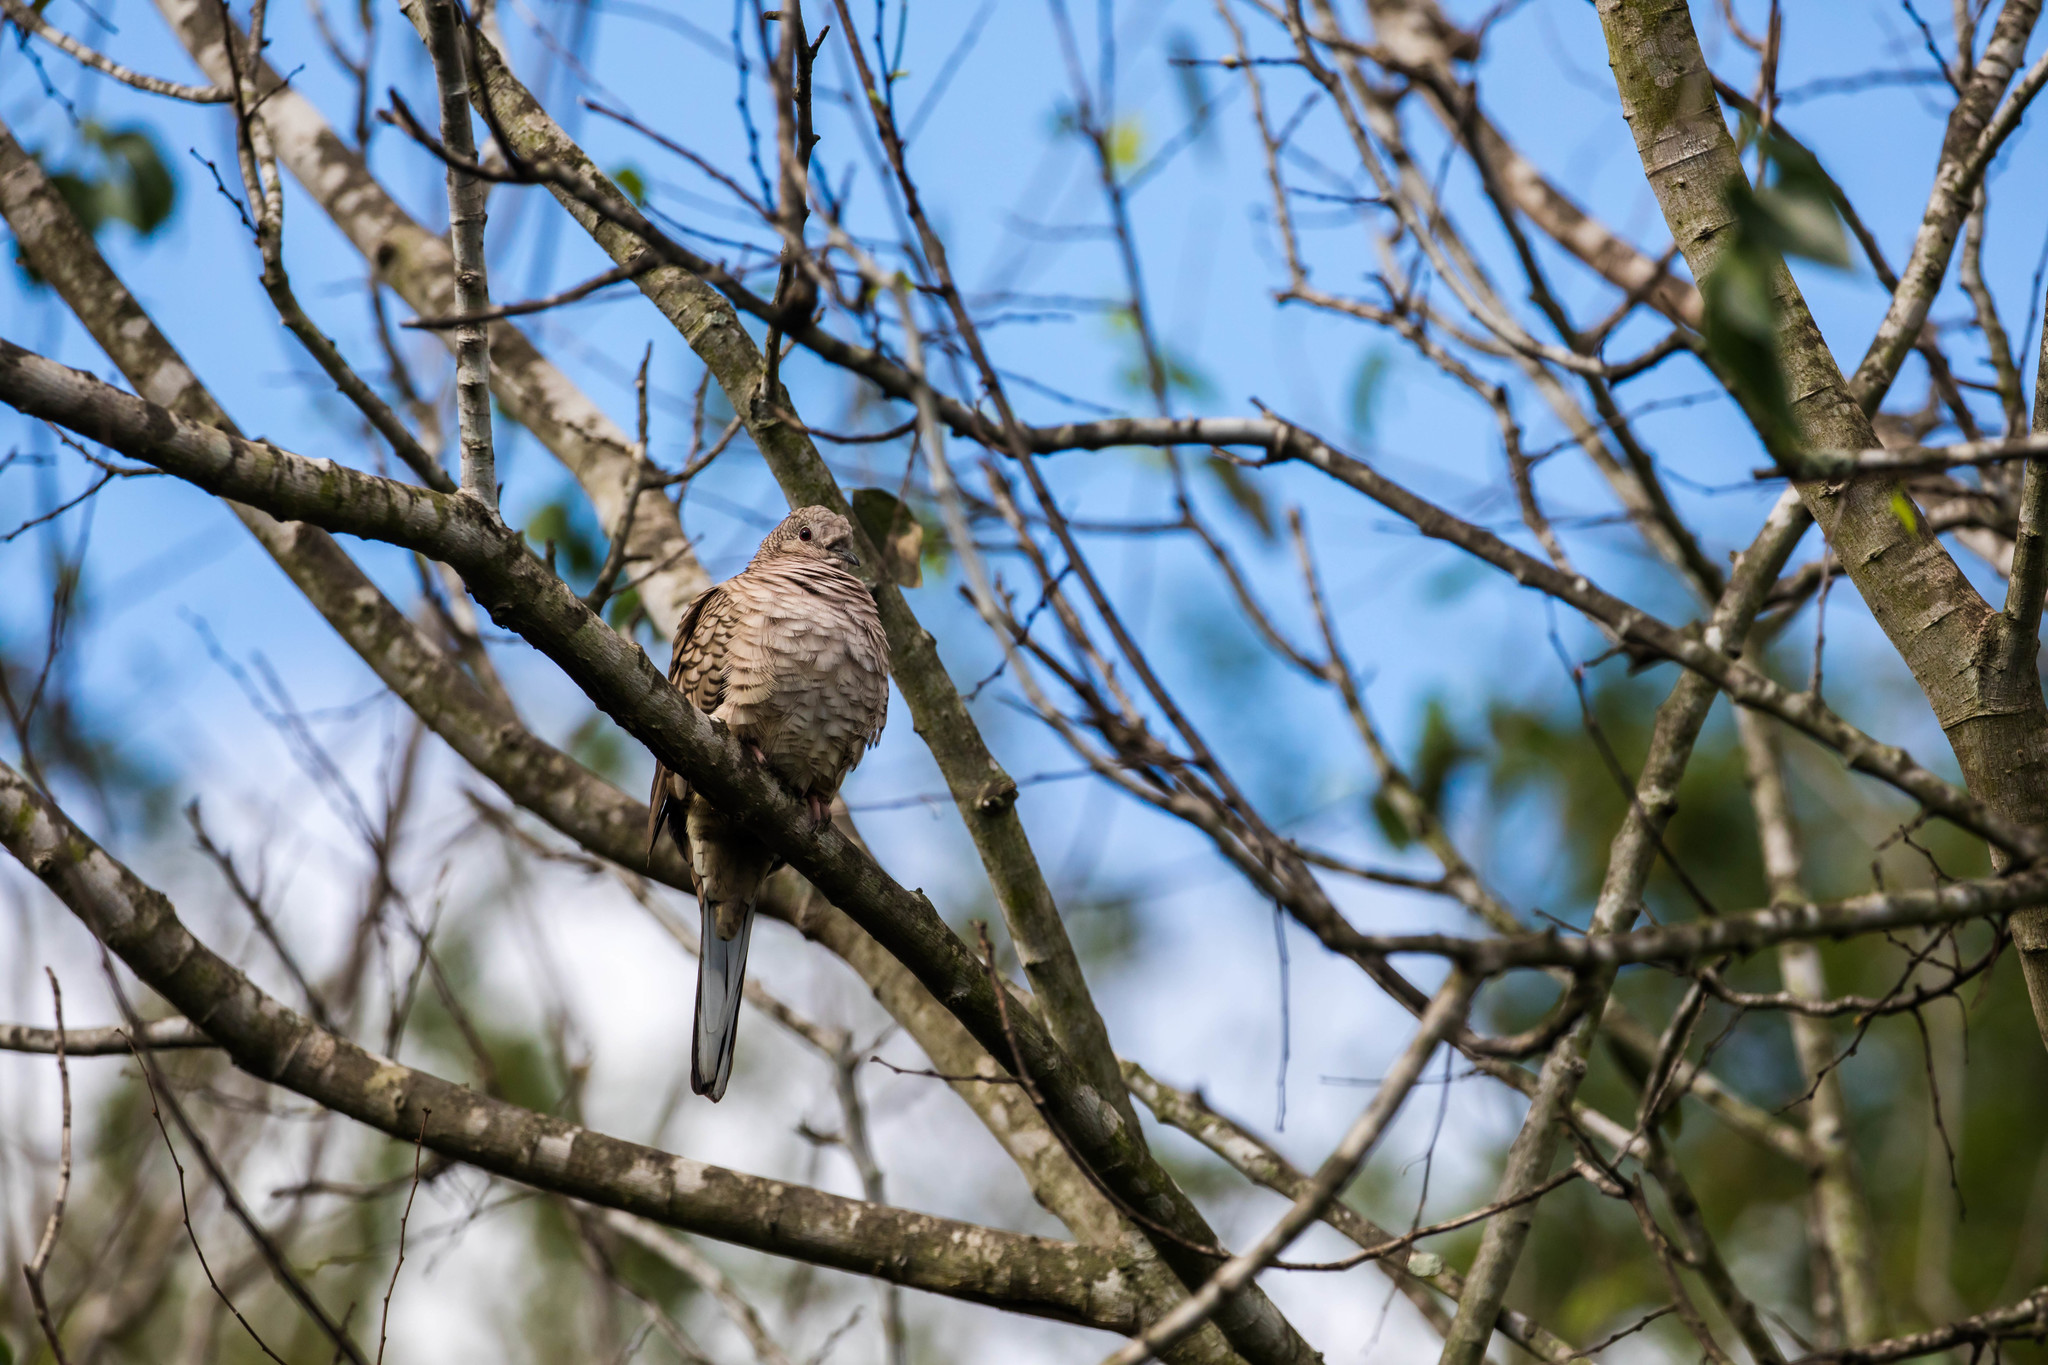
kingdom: Animalia
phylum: Chordata
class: Aves
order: Columbiformes
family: Columbidae
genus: Columbina
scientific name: Columbina inca
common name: Inca dove
